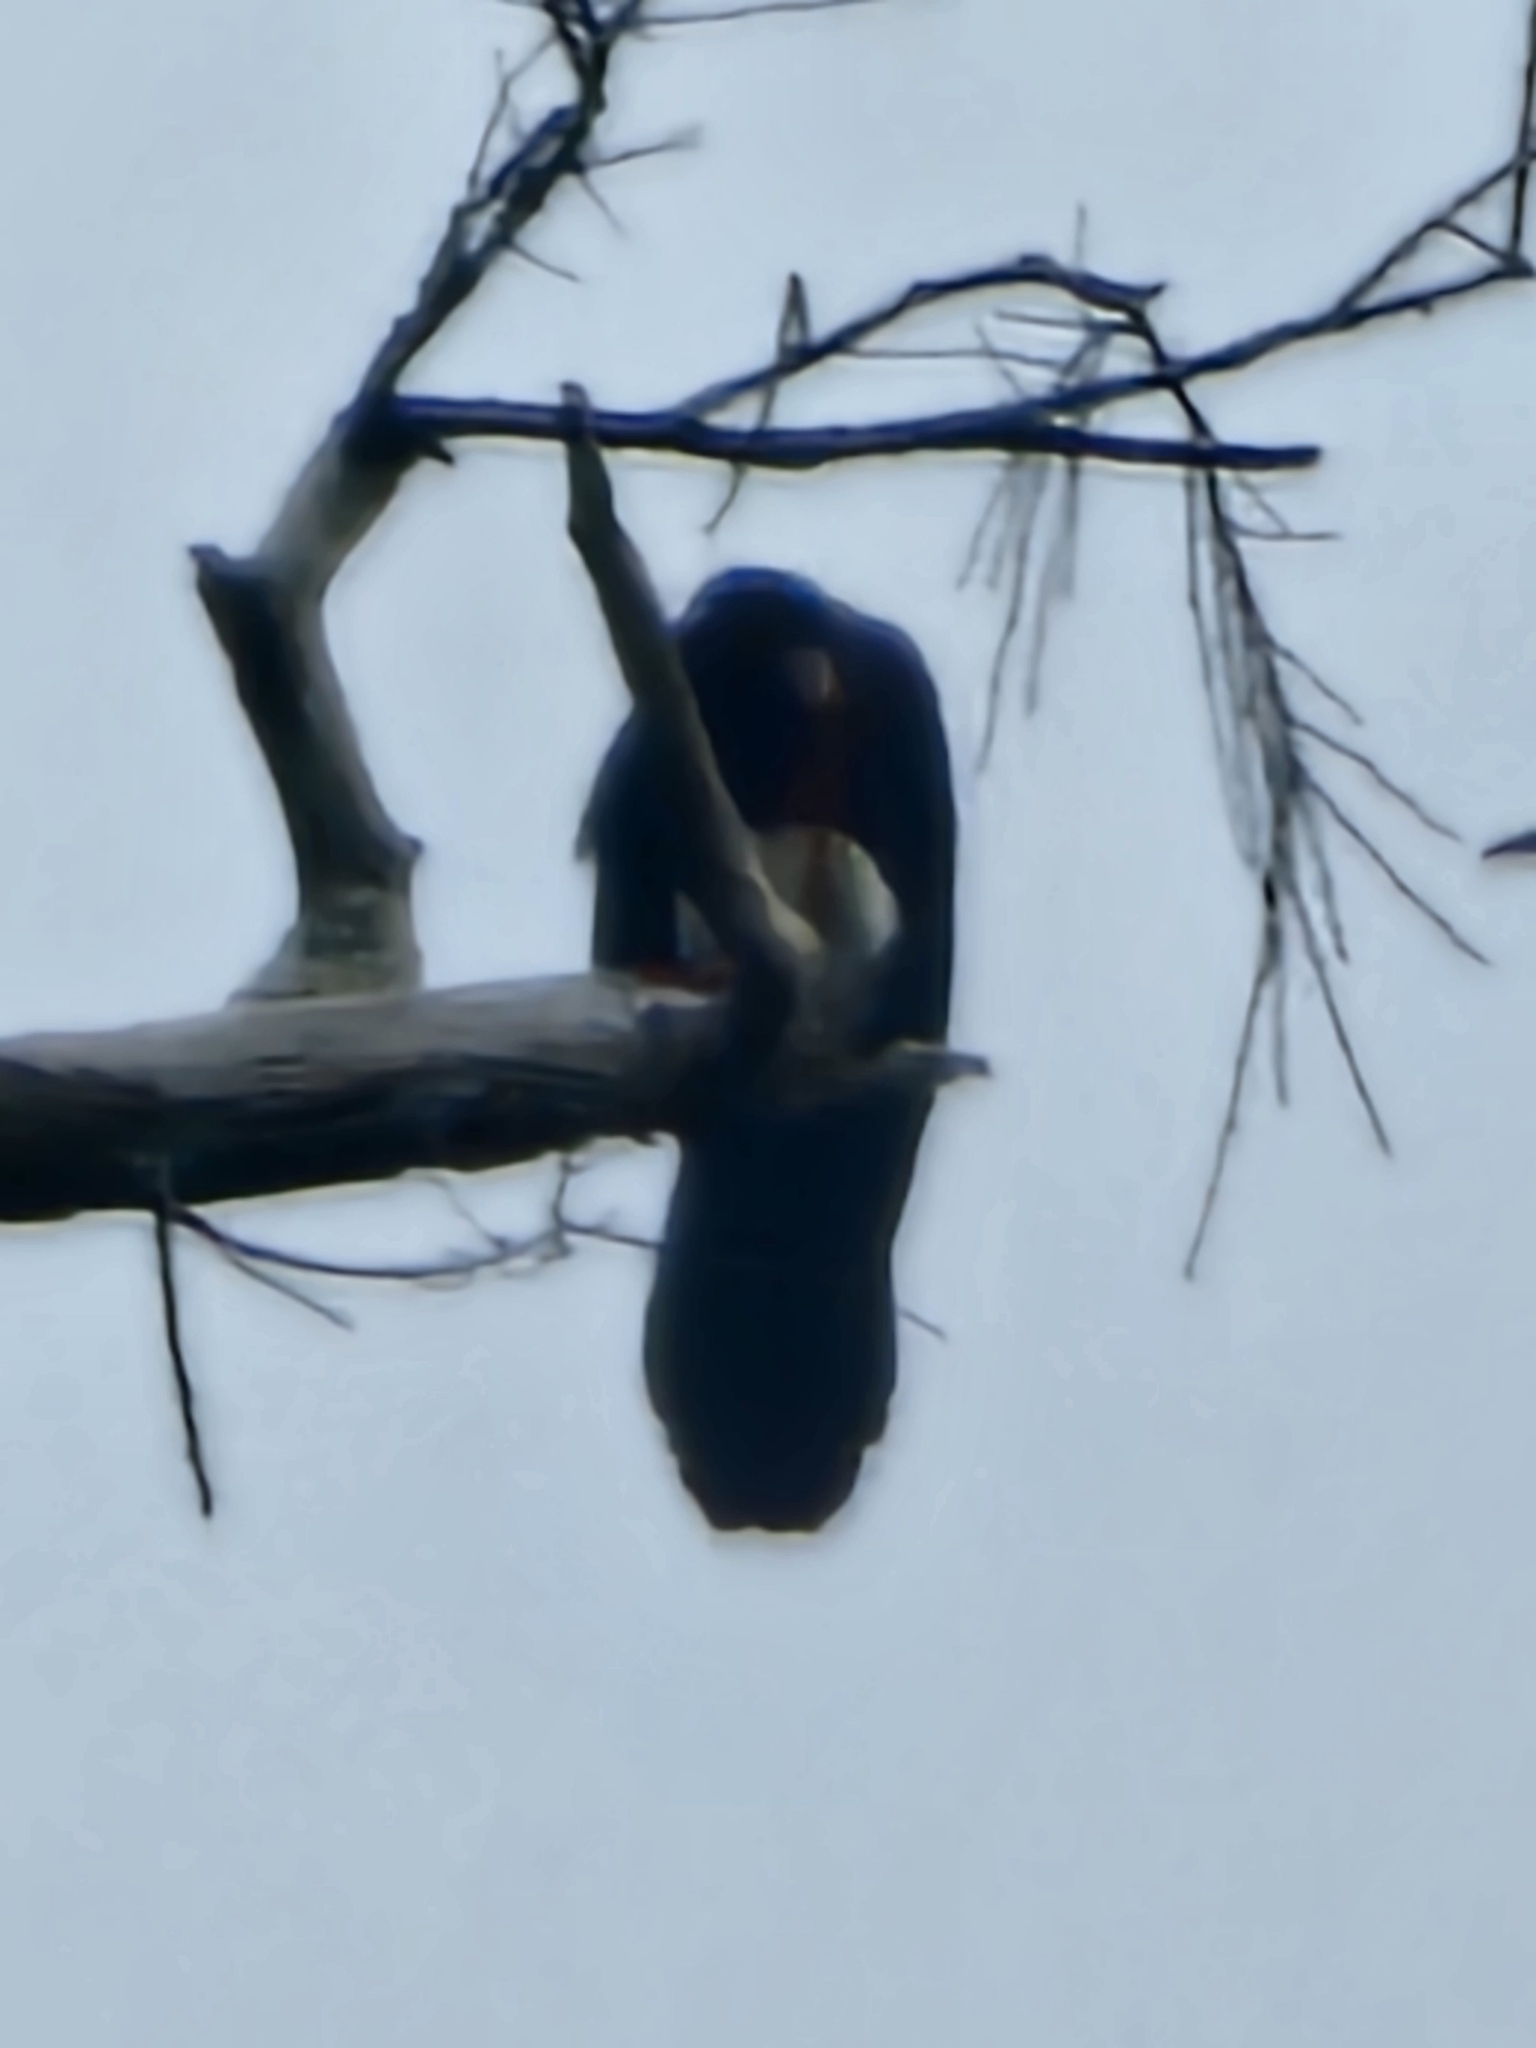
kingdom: Animalia
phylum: Chordata
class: Aves
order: Falconiformes
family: Falconidae
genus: Ibycter
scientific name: Ibycter americanus
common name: Red-throated caracara
